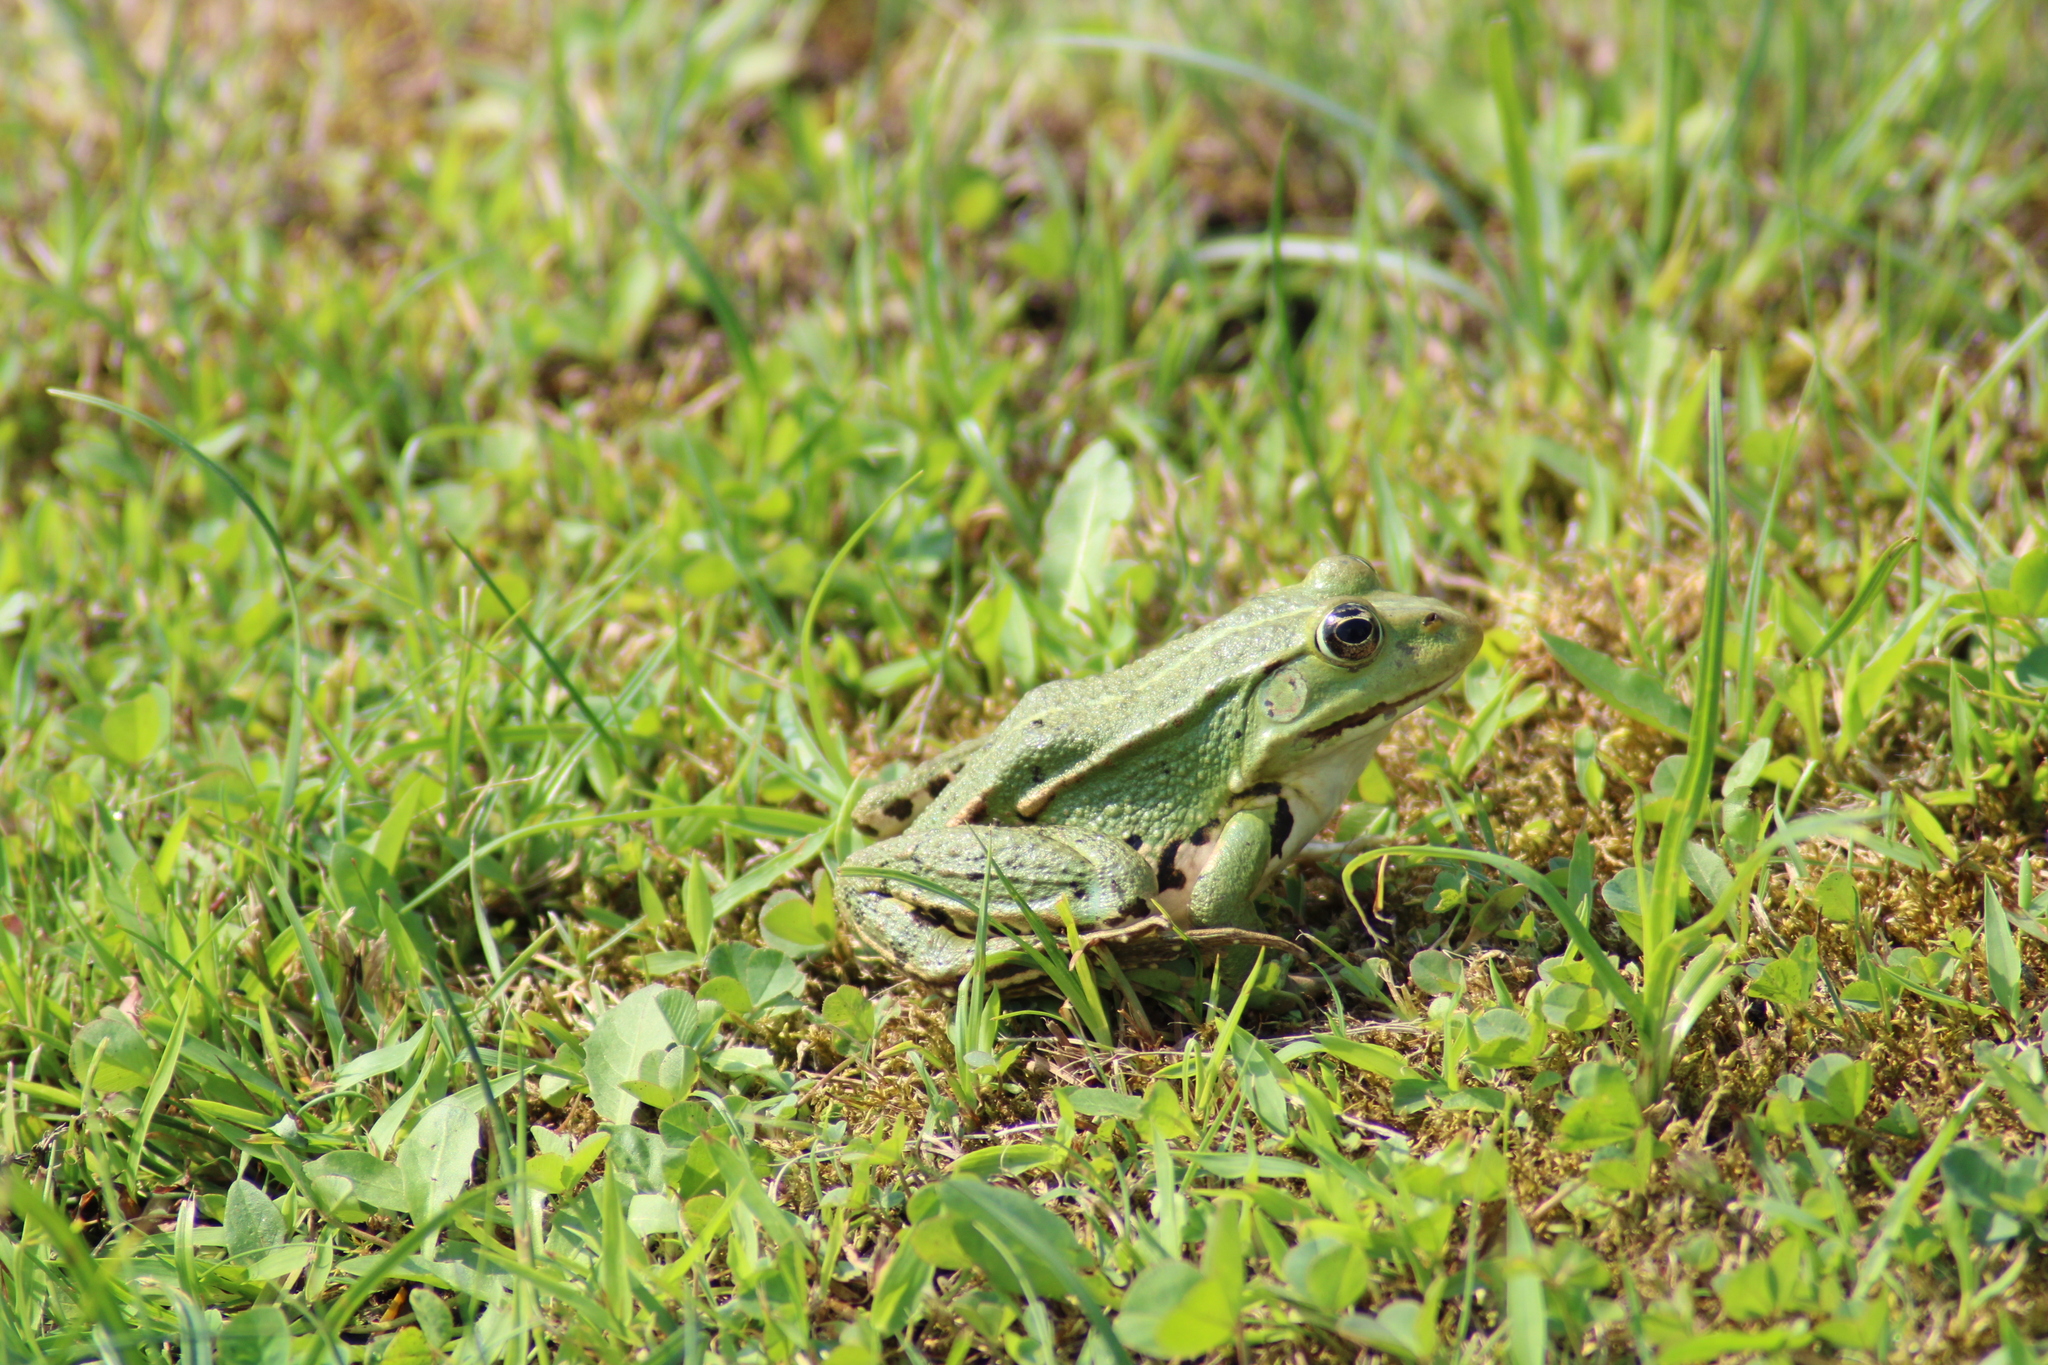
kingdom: Animalia
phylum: Chordata
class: Amphibia
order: Anura
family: Ranidae
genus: Pelophylax
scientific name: Pelophylax
